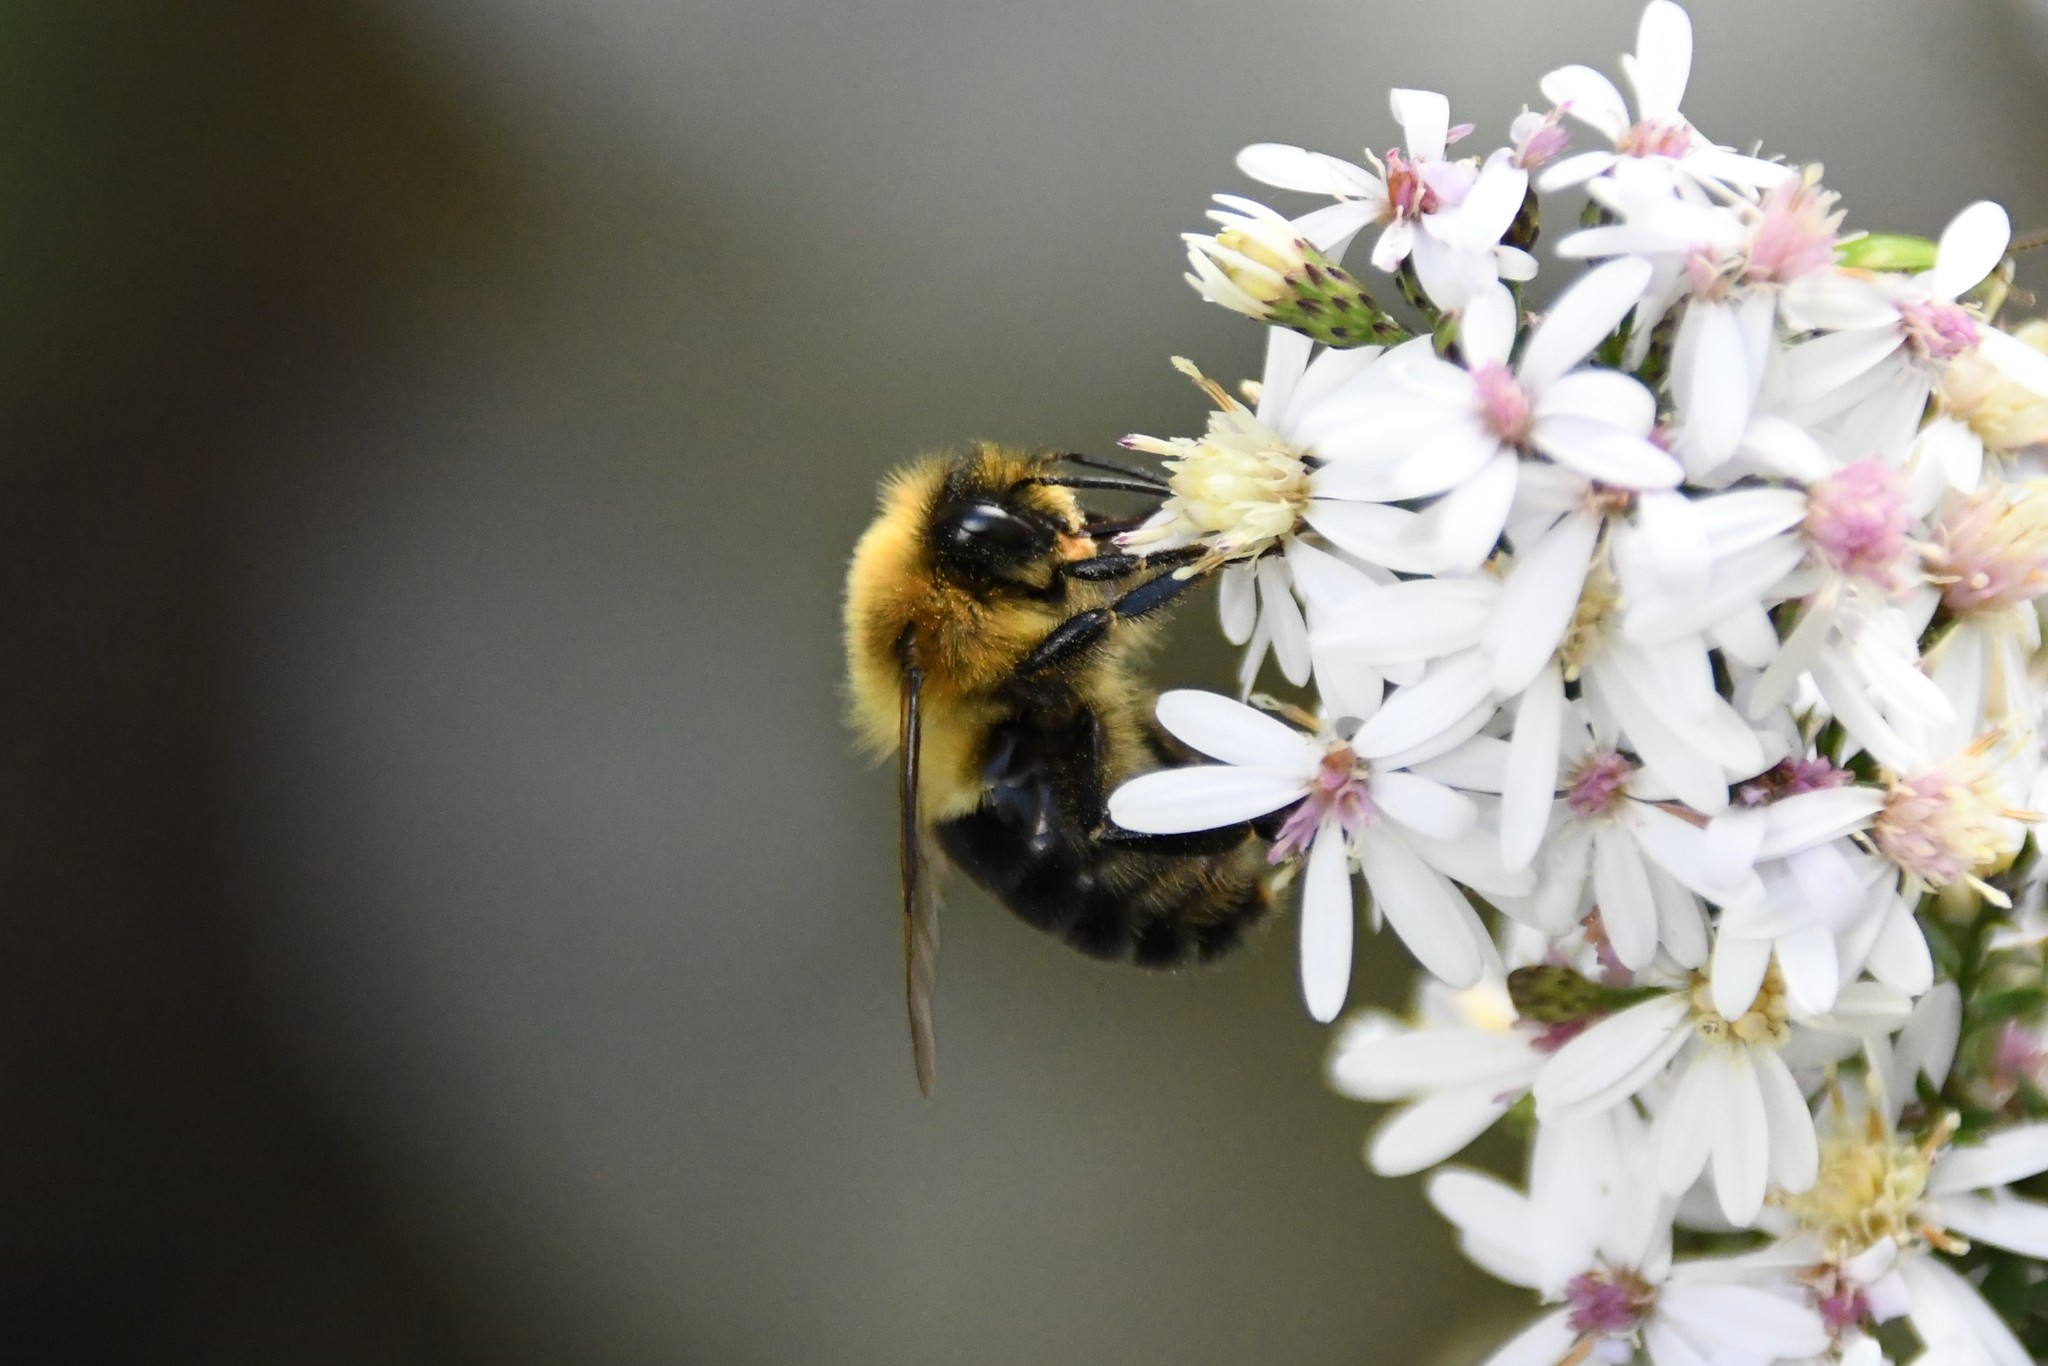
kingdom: Animalia
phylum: Arthropoda
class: Insecta
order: Hymenoptera
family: Apidae
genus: Bombus
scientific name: Bombus impatiens
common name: Common eastern bumble bee
